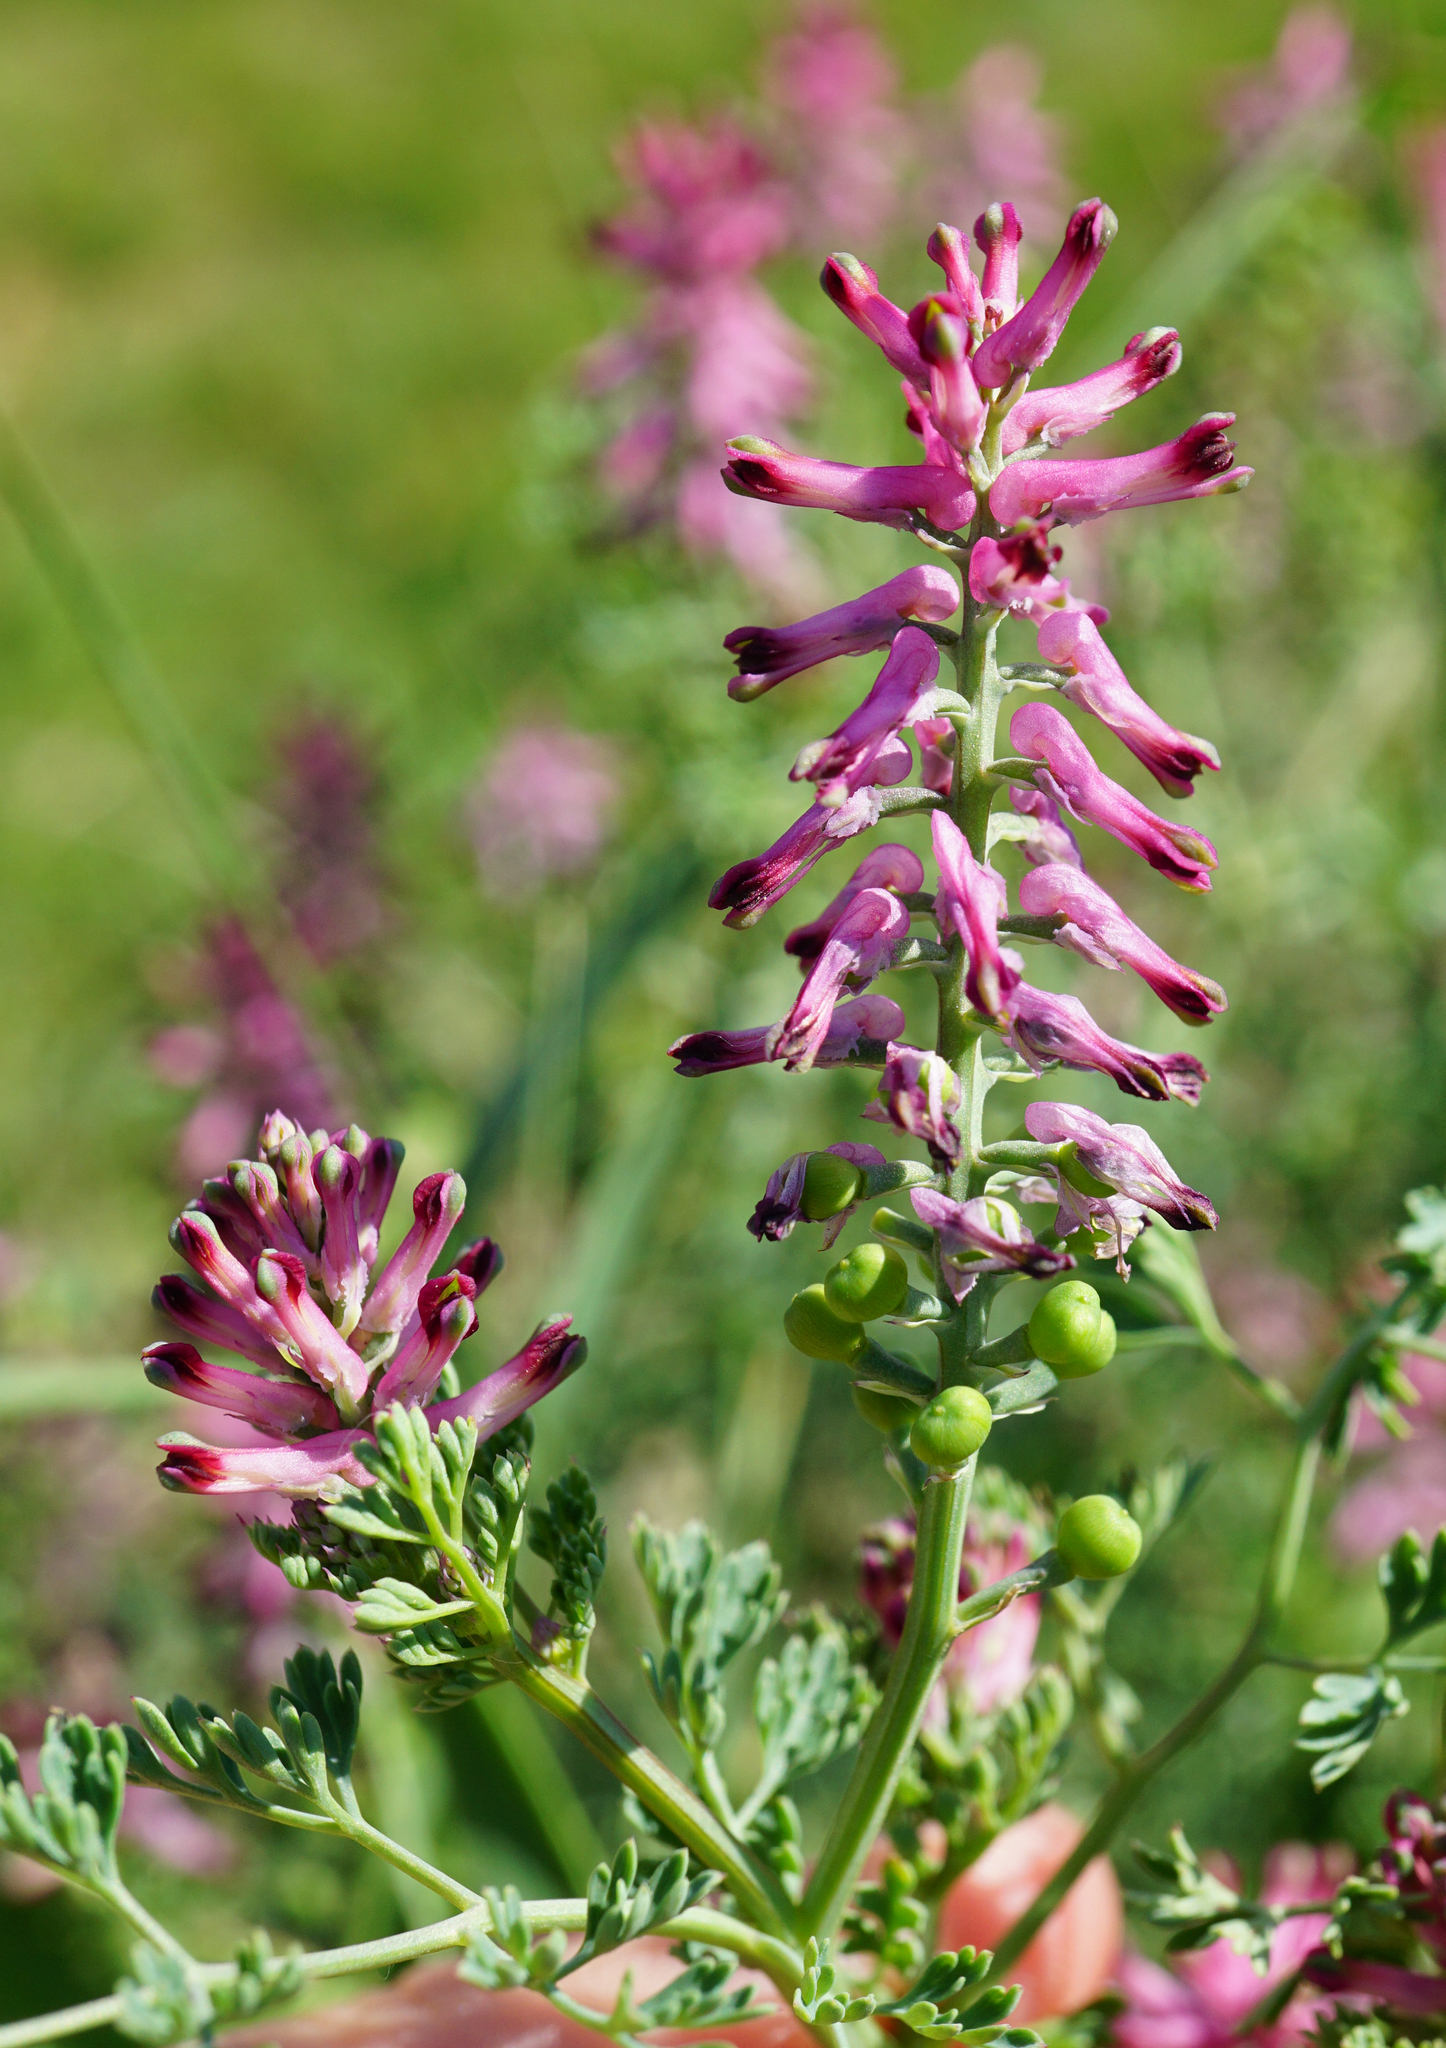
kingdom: Plantae
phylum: Tracheophyta
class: Magnoliopsida
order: Ranunculales
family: Papaveraceae
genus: Fumaria
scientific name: Fumaria officinalis
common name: Common fumitory
